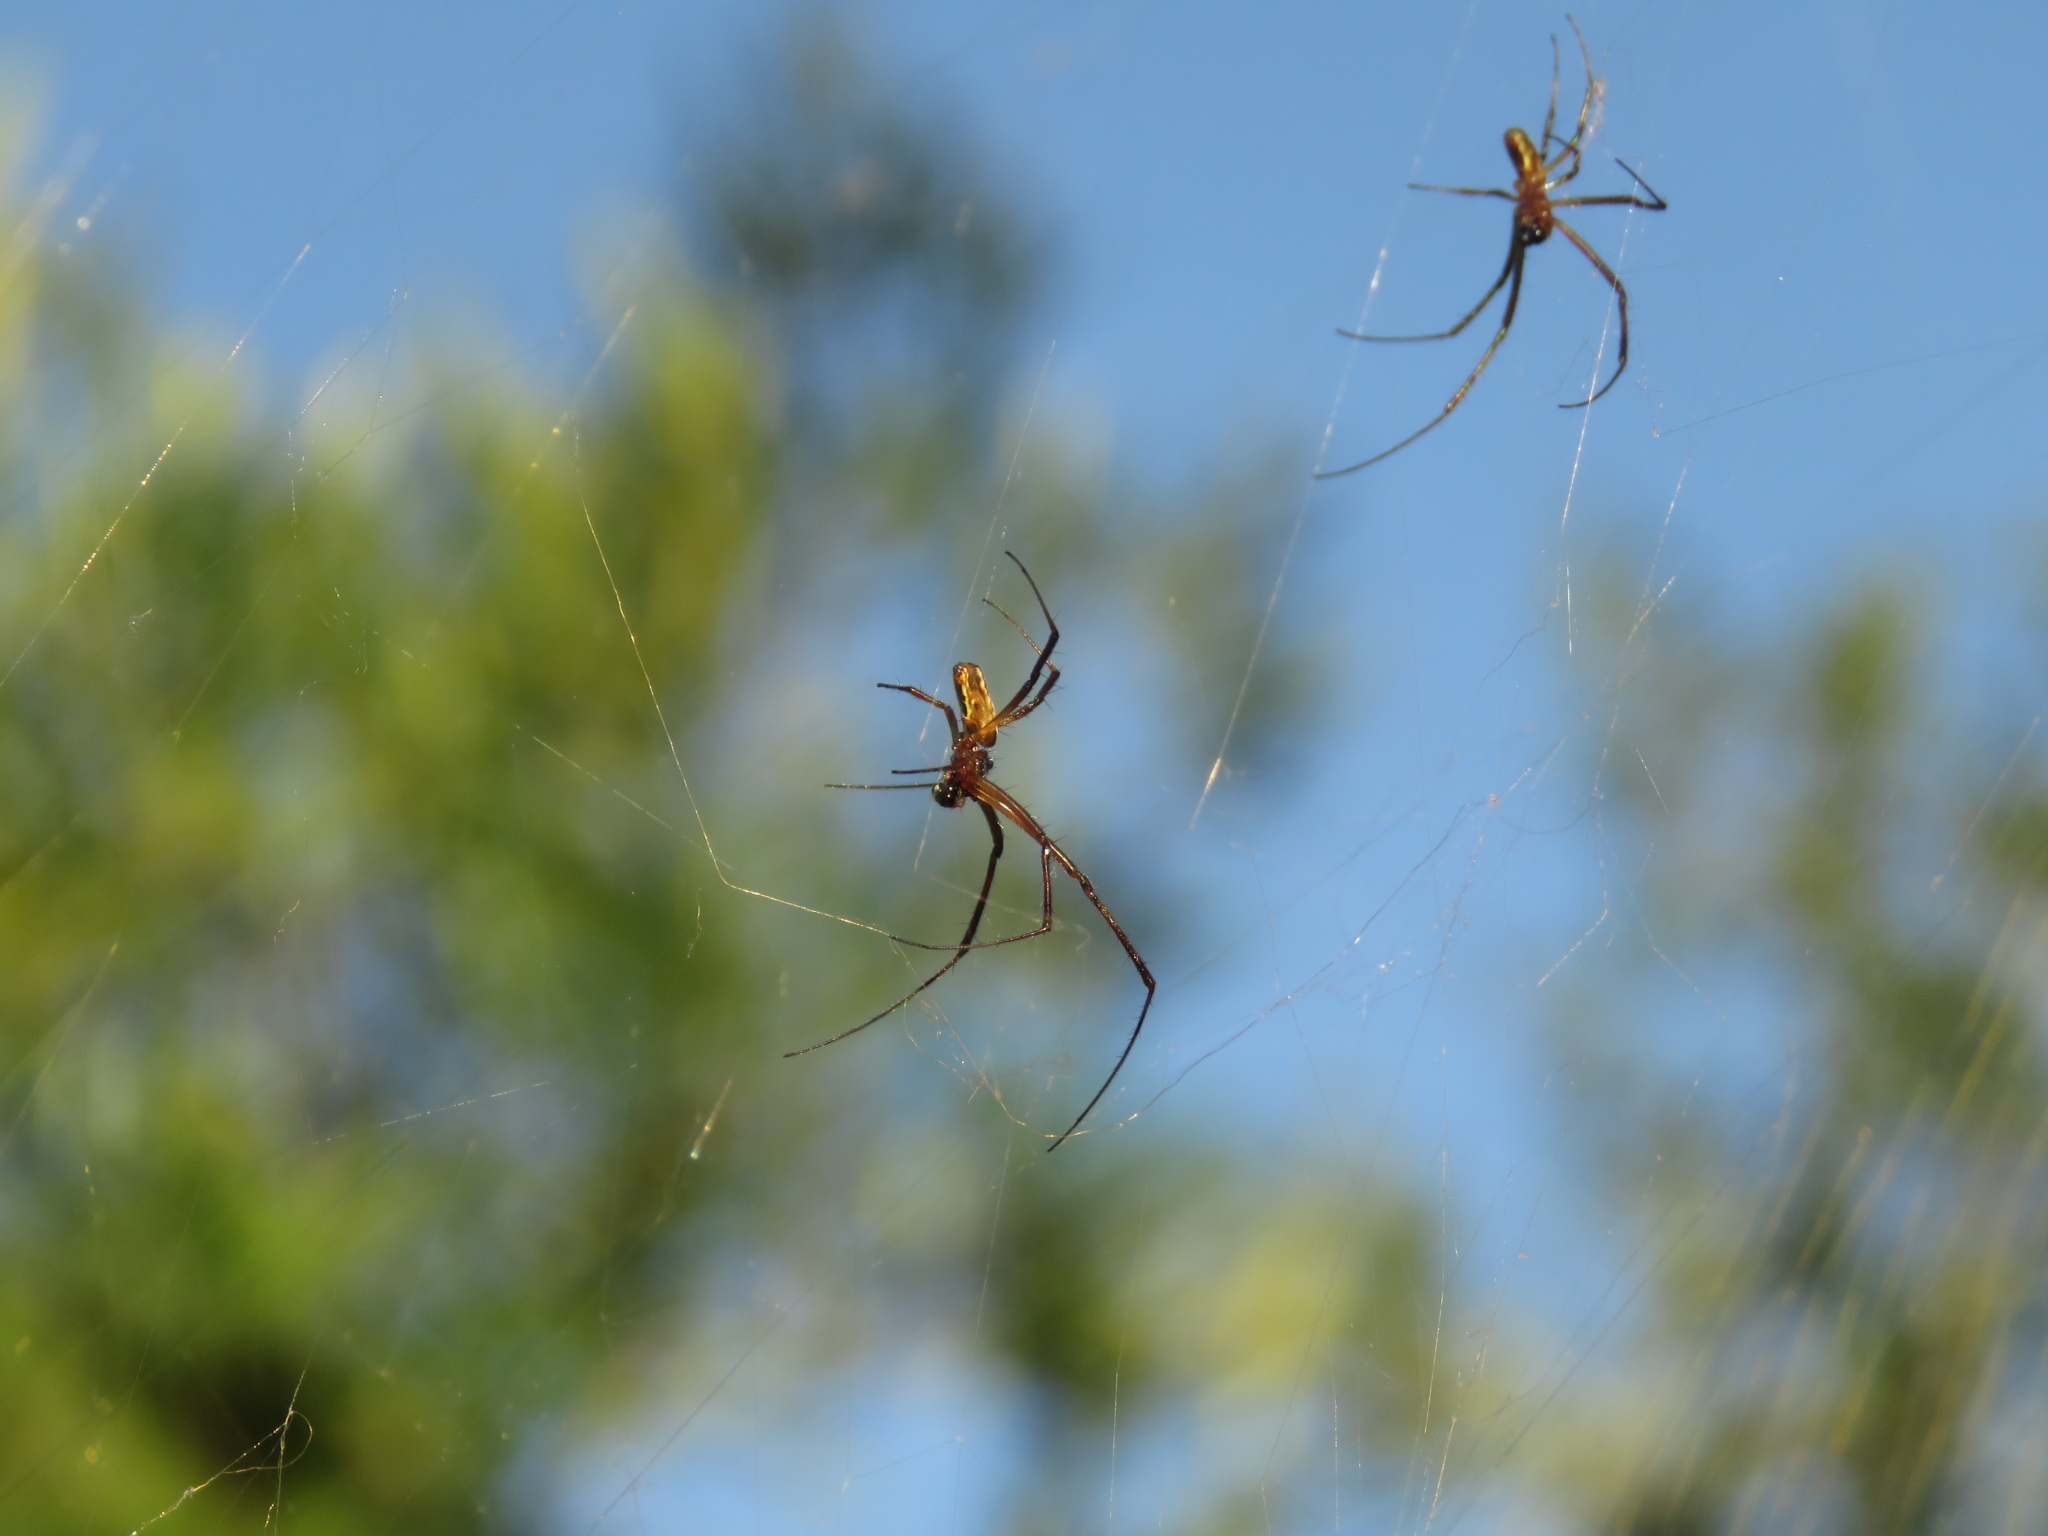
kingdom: Animalia
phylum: Arthropoda
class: Arachnida
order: Araneae
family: Araneidae
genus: Trichonephila
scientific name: Trichonephila fenestrata
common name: Hairy golden orb weaver
